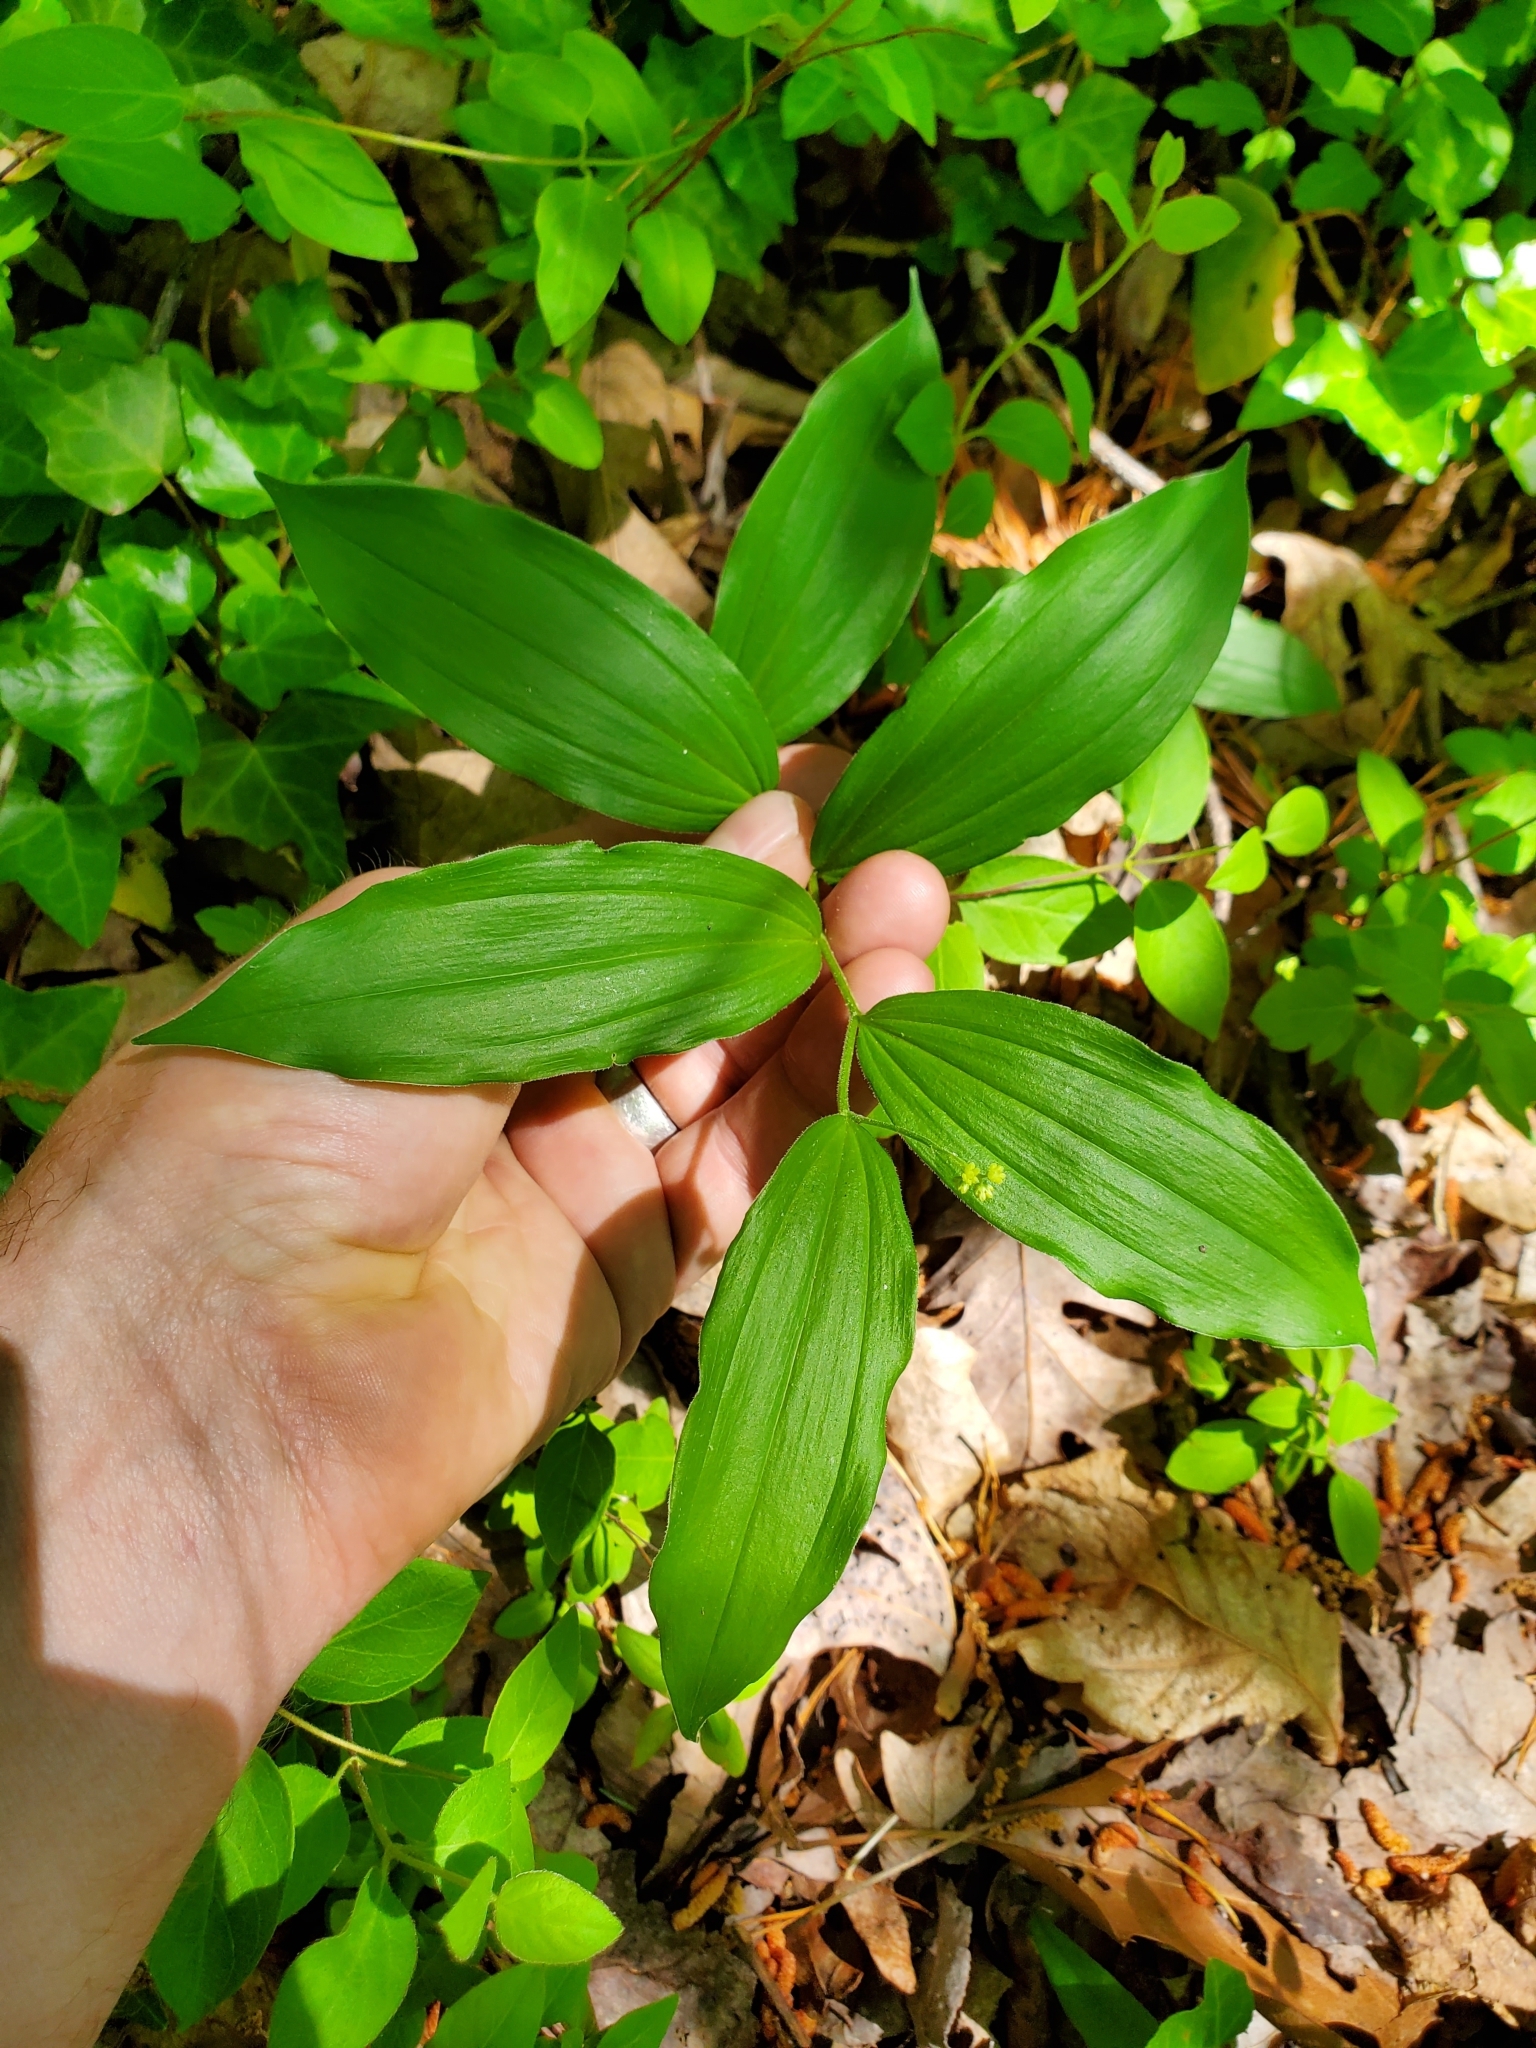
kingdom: Plantae
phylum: Tracheophyta
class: Liliopsida
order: Asparagales
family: Asparagaceae
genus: Maianthemum
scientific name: Maianthemum racemosum
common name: False spikenard
